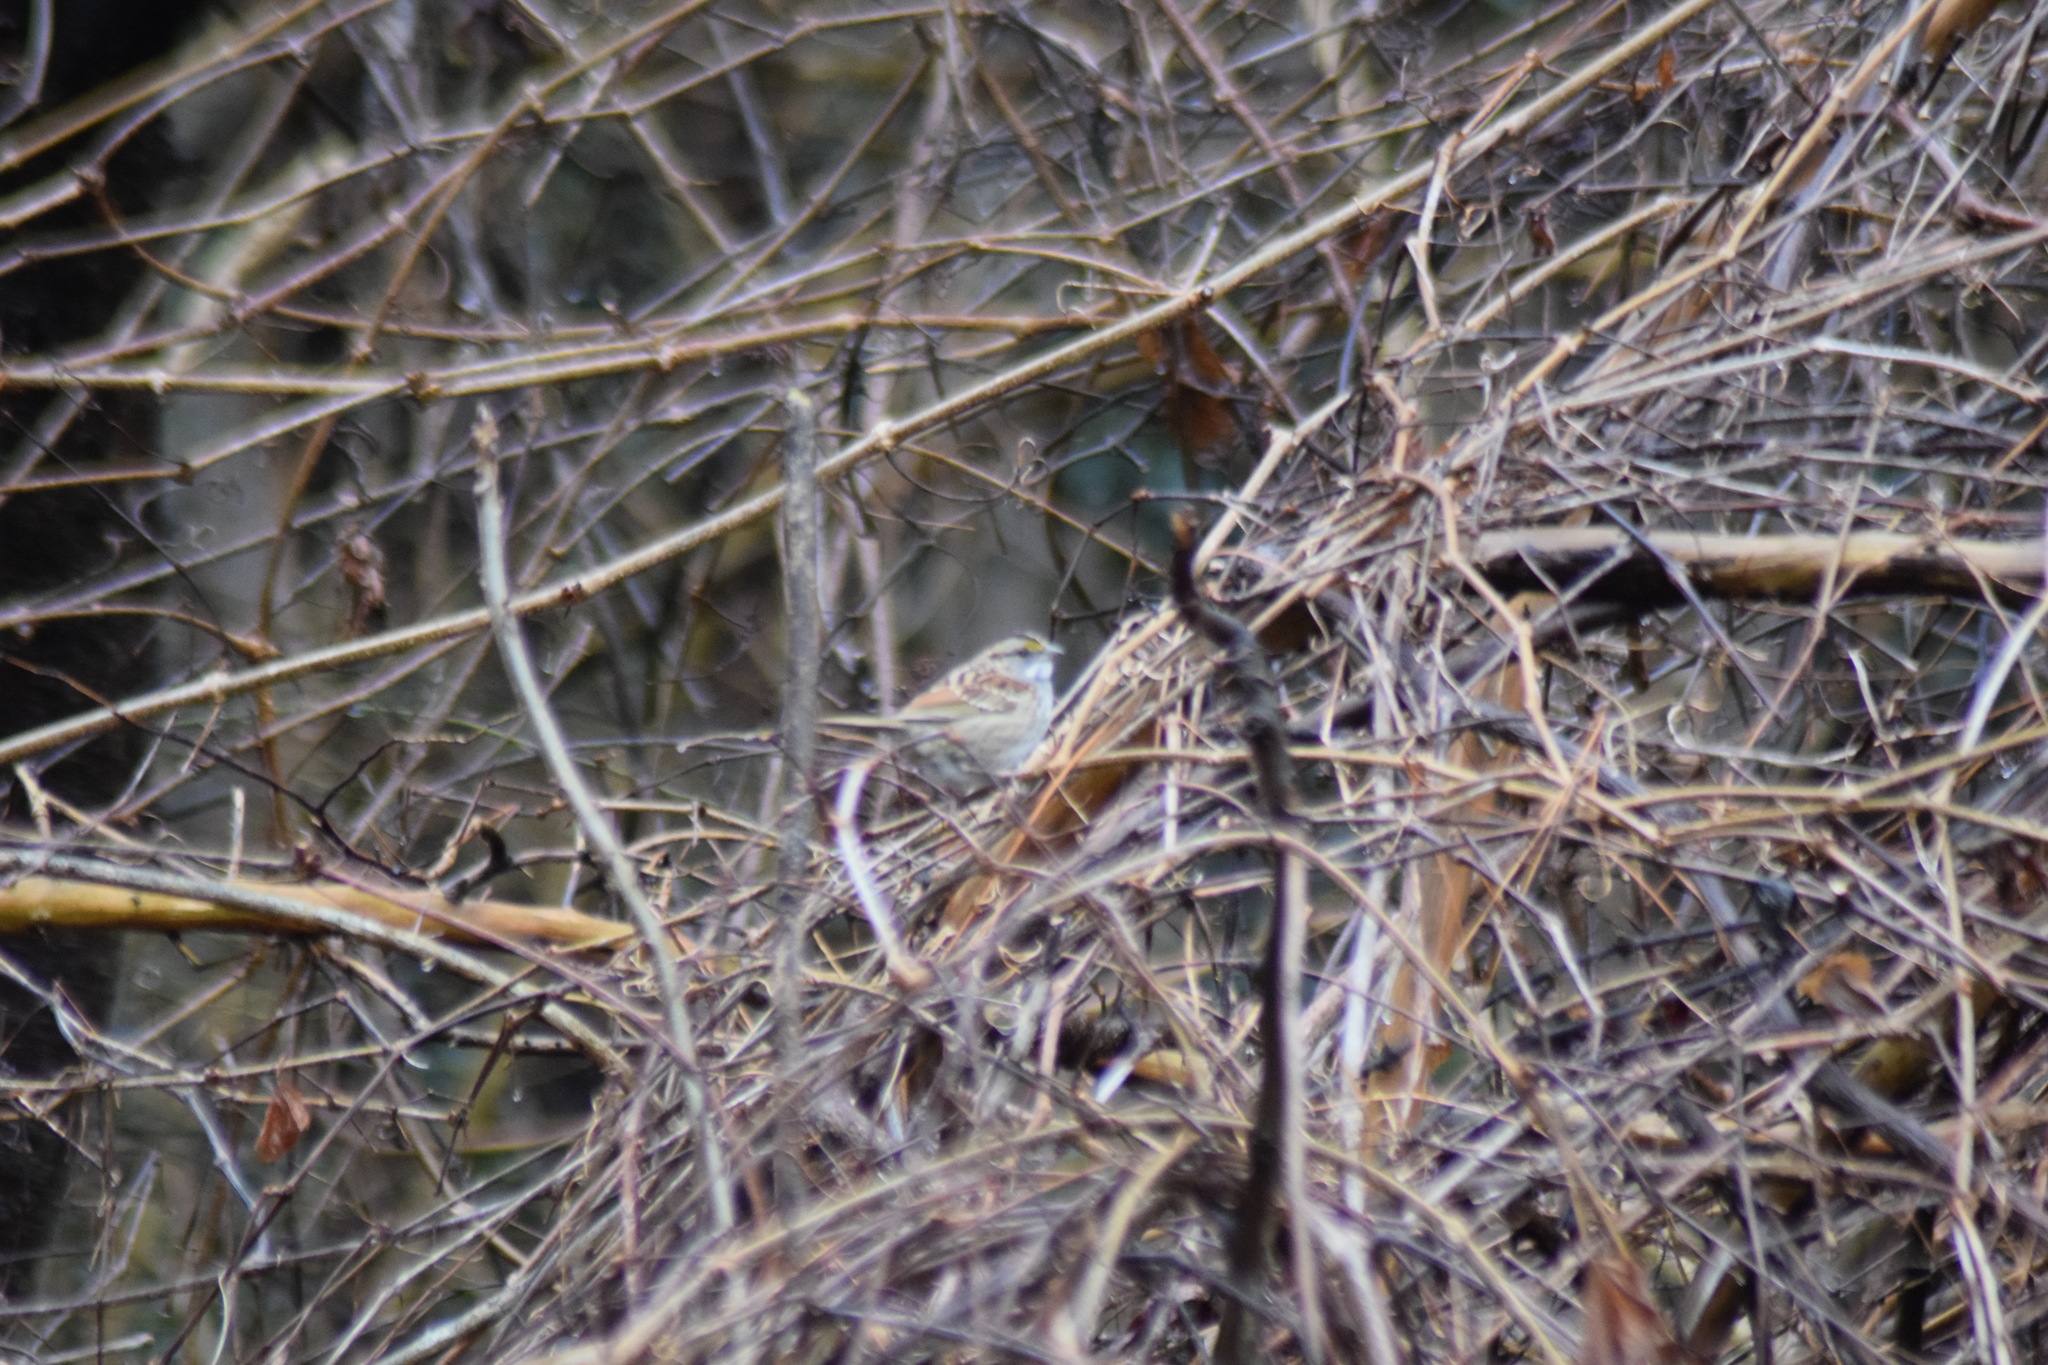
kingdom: Animalia
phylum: Chordata
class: Aves
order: Passeriformes
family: Passerellidae
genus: Zonotrichia
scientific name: Zonotrichia albicollis
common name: White-throated sparrow
